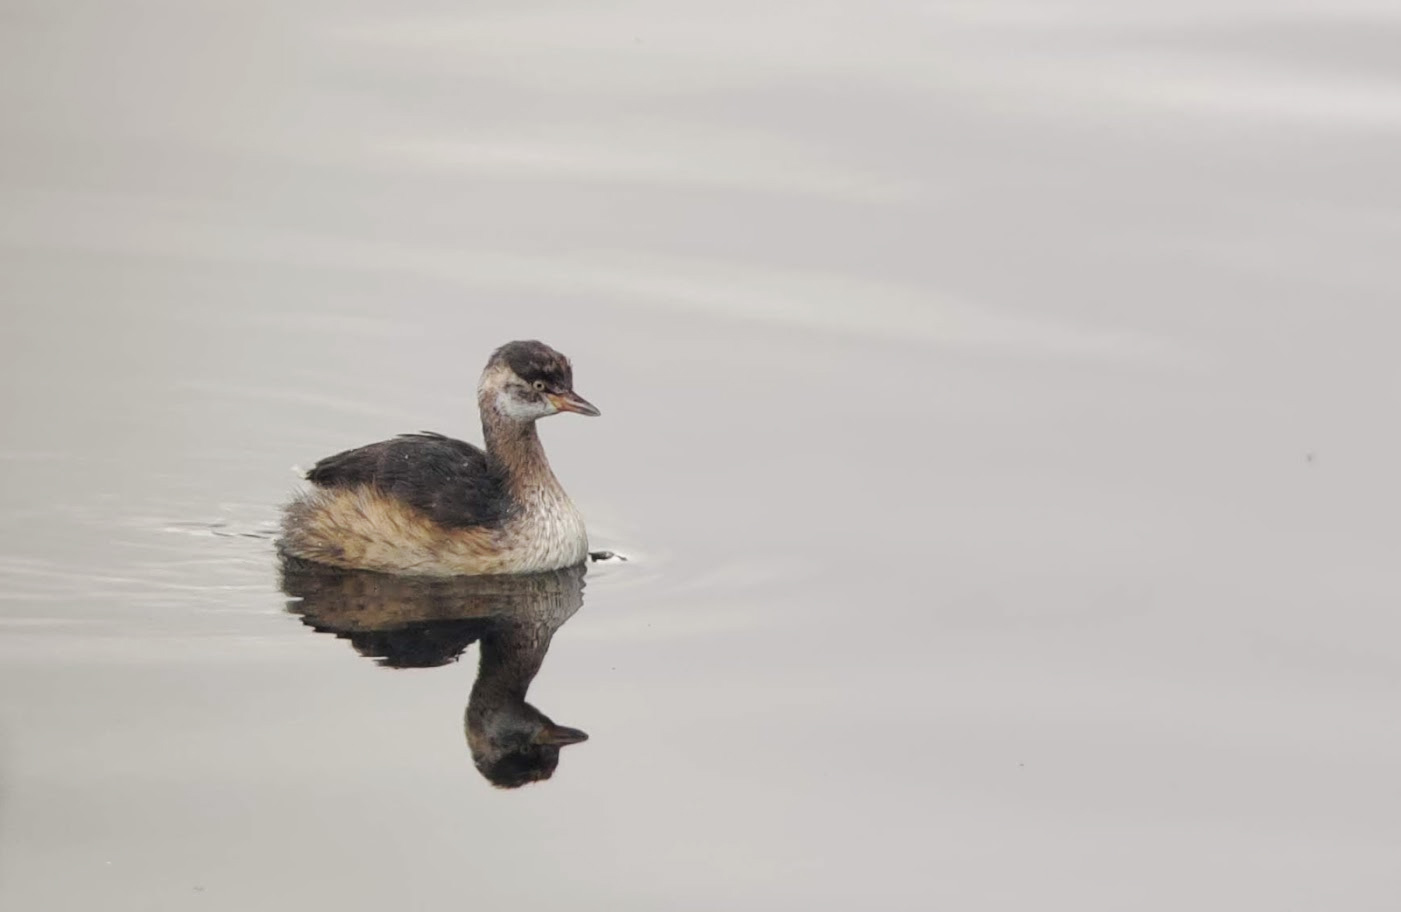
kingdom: Animalia
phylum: Chordata
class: Aves
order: Podicipediformes
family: Podicipedidae
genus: Tachybaptus
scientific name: Tachybaptus novaehollandiae
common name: Australasian grebe
